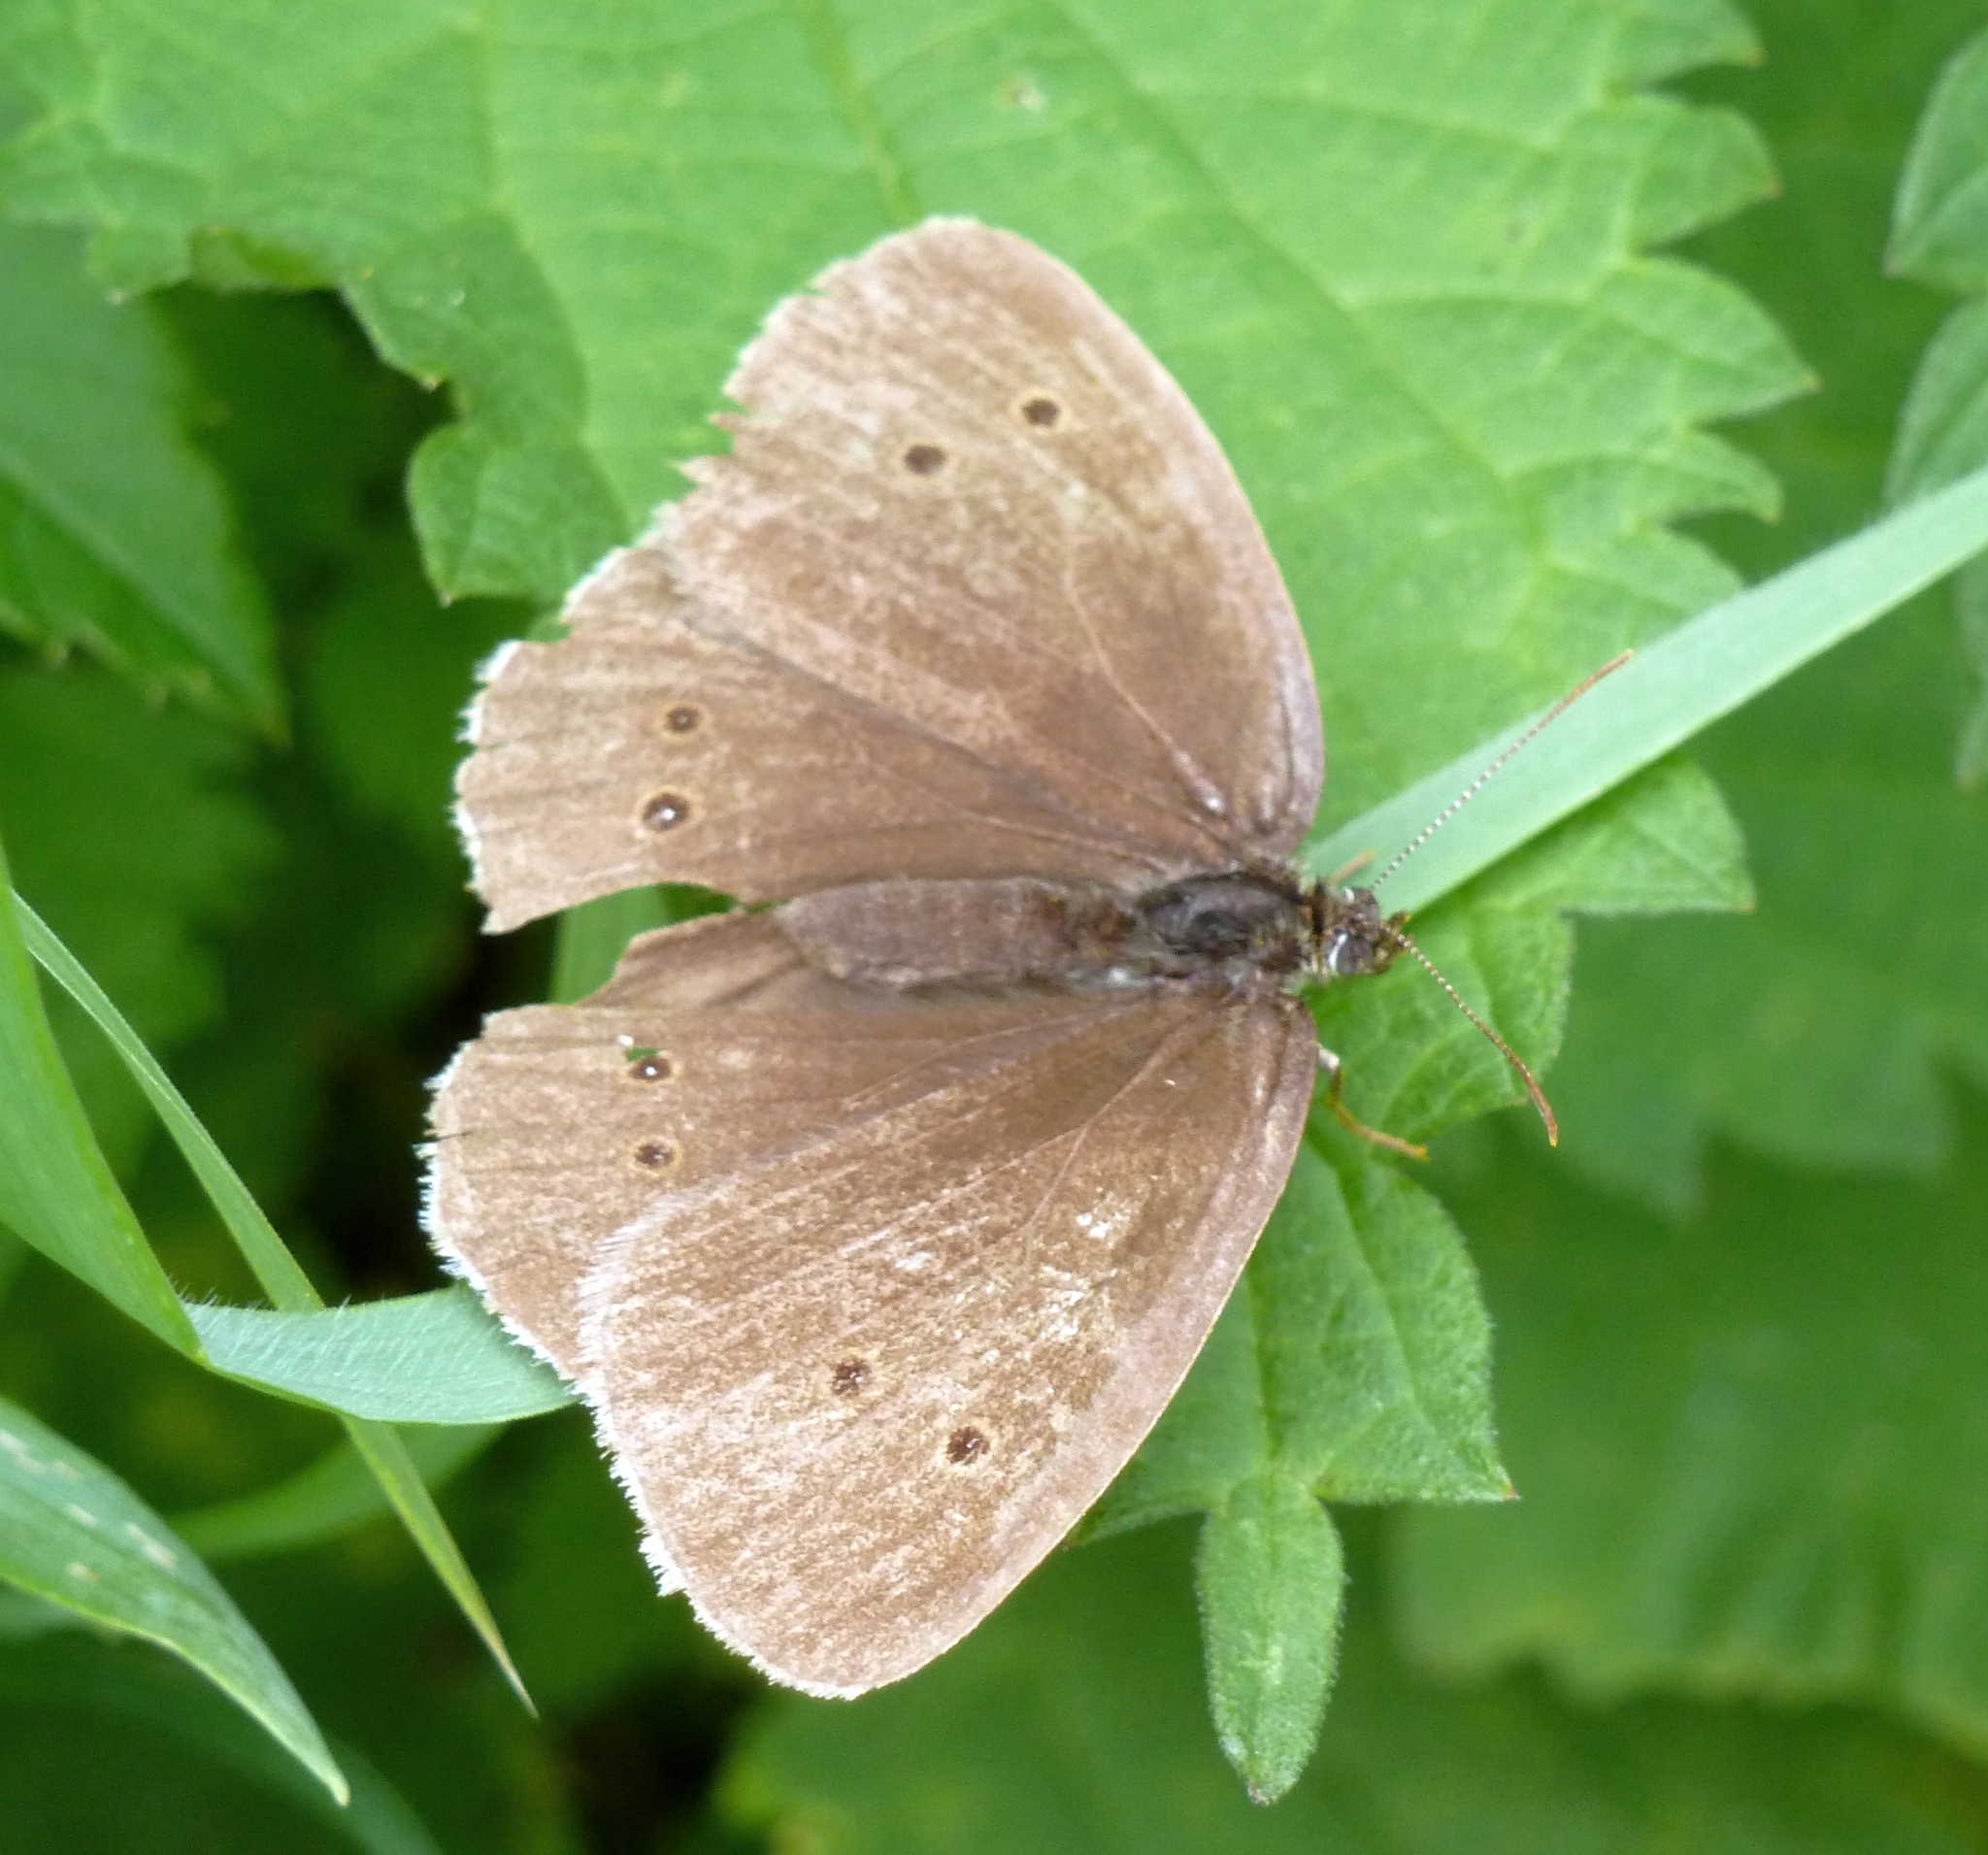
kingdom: Animalia
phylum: Arthropoda
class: Insecta
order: Lepidoptera
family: Nymphalidae
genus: Aphantopus
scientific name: Aphantopus hyperantus
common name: Ringlet
